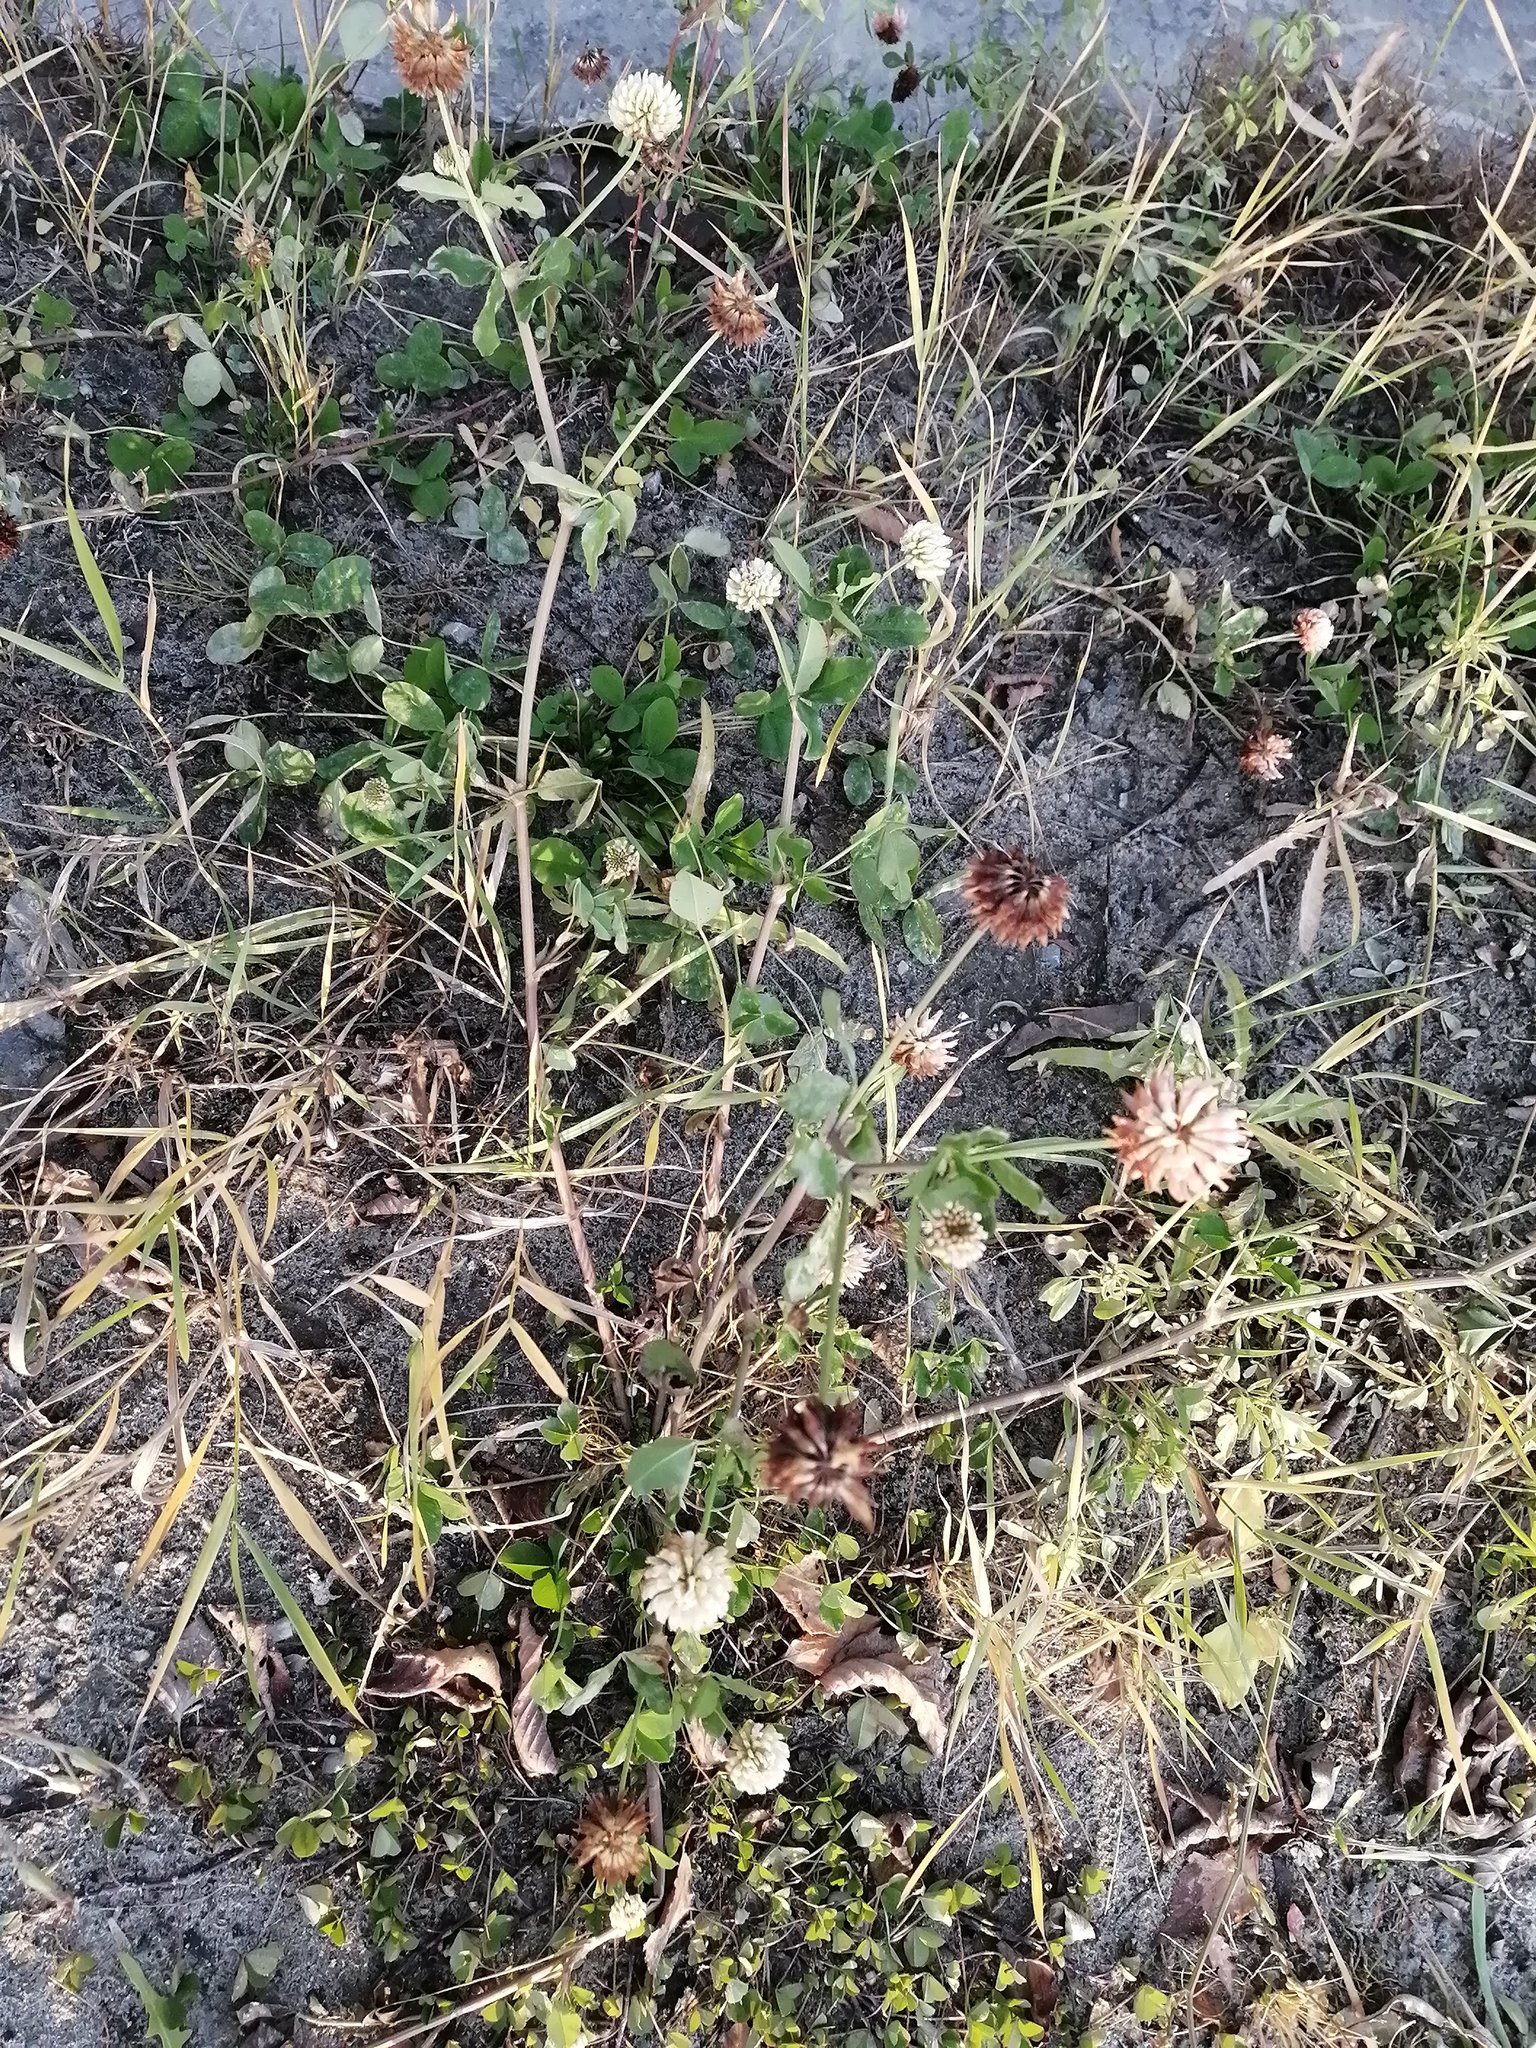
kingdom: Plantae
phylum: Tracheophyta
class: Magnoliopsida
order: Fabales
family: Fabaceae
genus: Trifolium
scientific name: Trifolium hybridum
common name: Alsike clover
